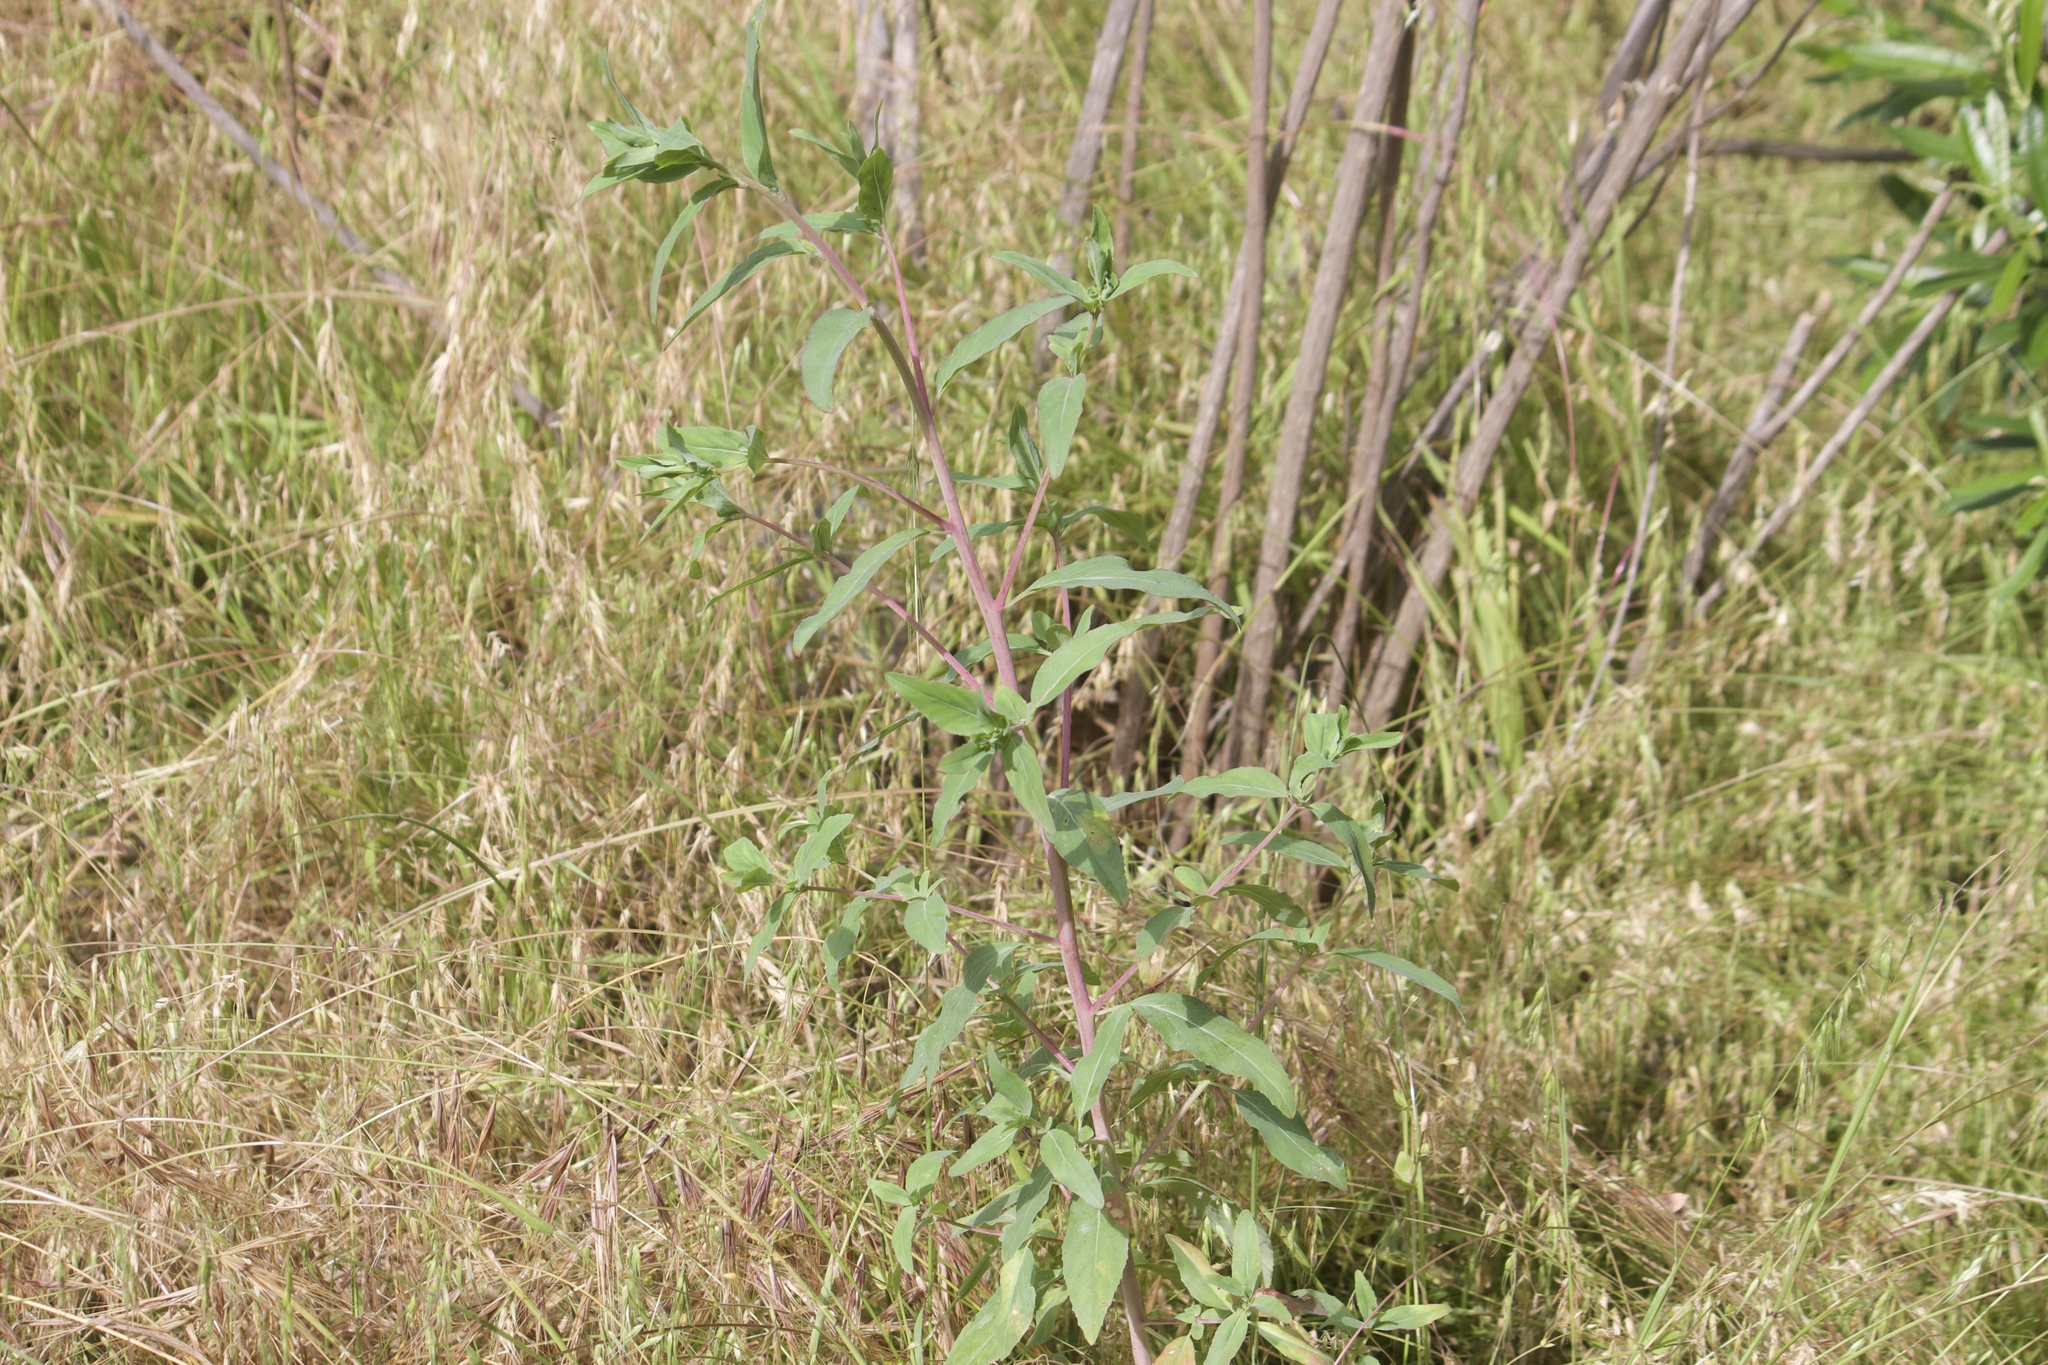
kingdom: Plantae
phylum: Tracheophyta
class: Magnoliopsida
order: Myrtales
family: Onagraceae
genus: Clarkia
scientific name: Clarkia unguiculata
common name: Clarkia
